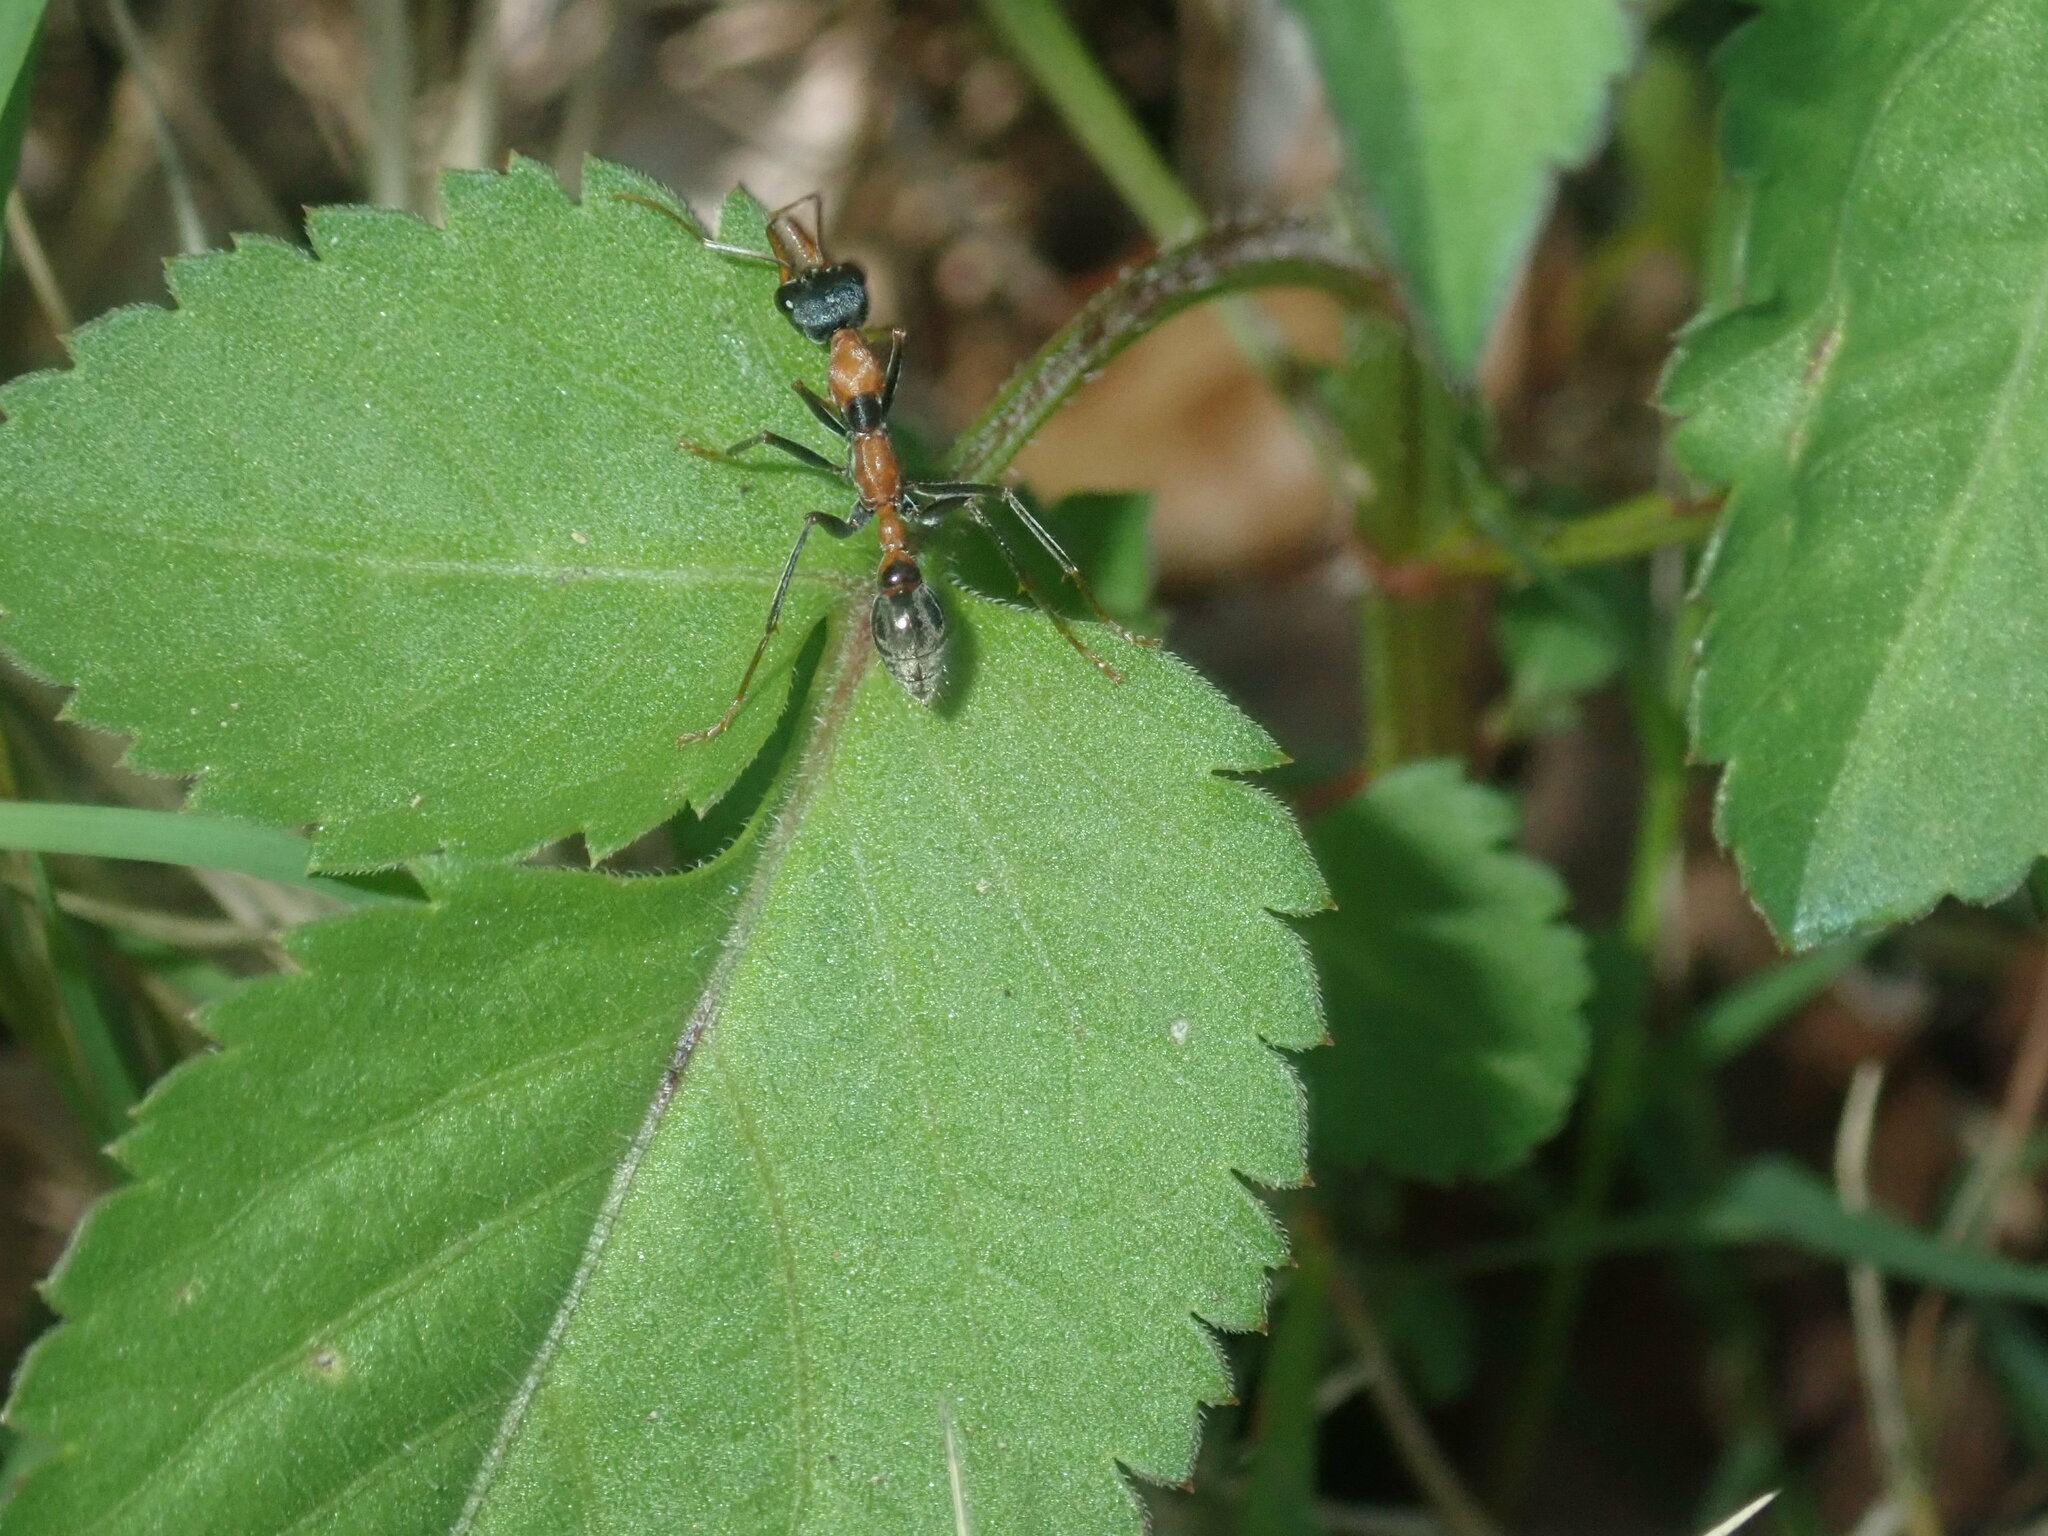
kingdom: Animalia
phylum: Arthropoda
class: Insecta
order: Hymenoptera
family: Formicidae
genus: Myrmecia
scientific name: Myrmecia nigrocincta
